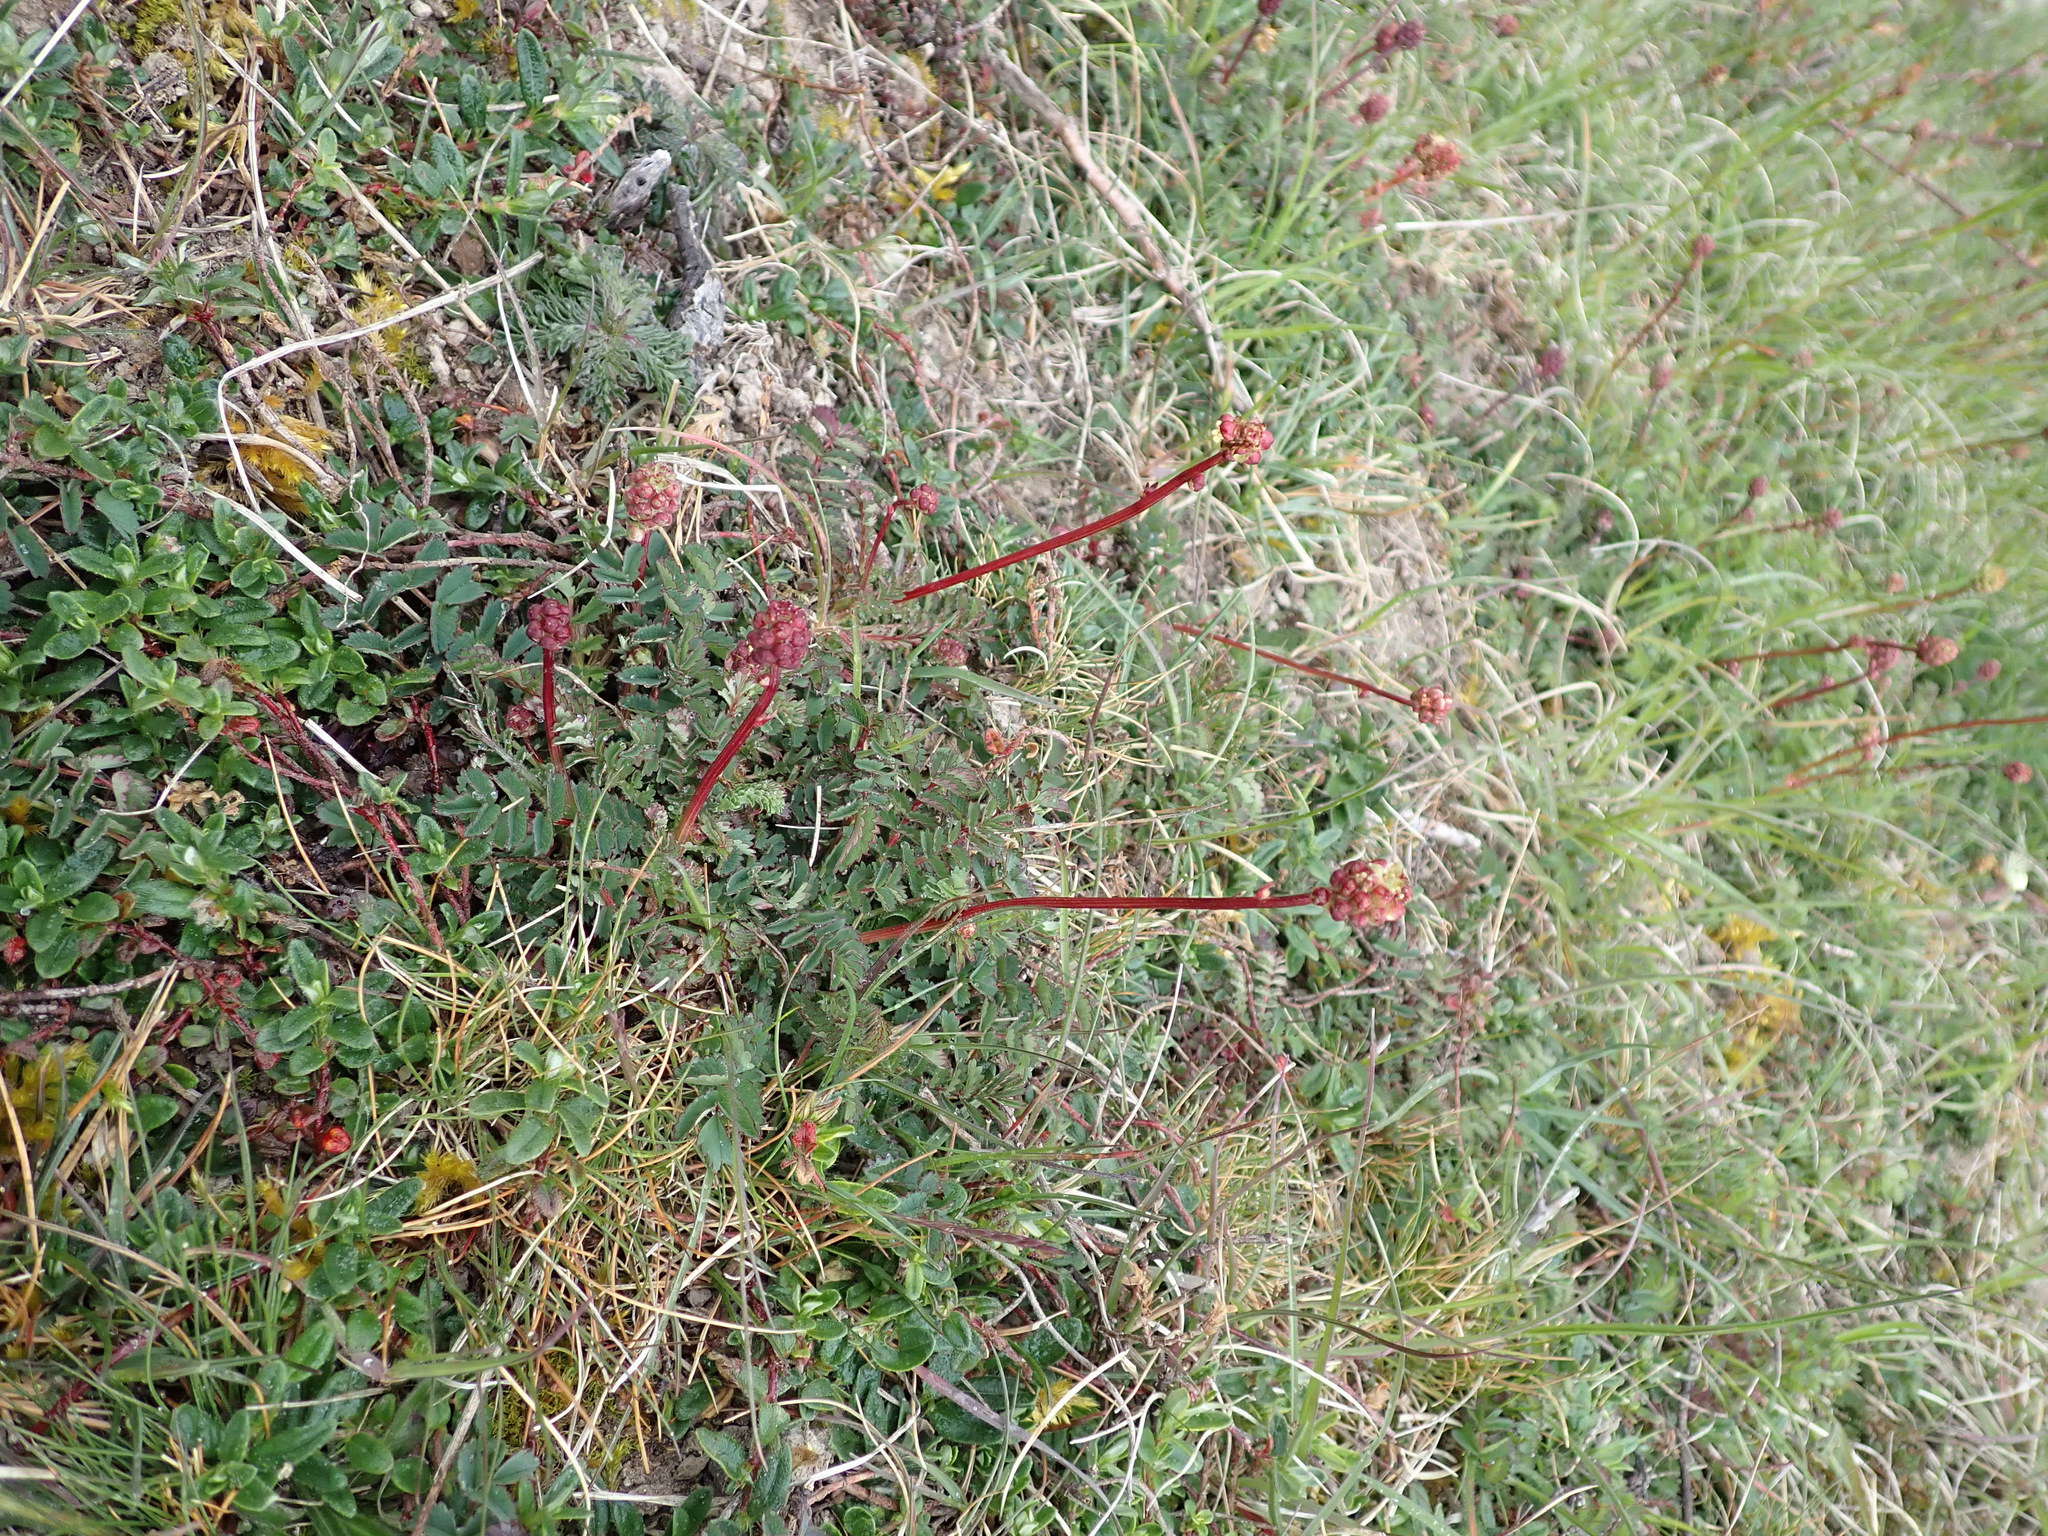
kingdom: Plantae
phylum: Tracheophyta
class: Magnoliopsida
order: Rosales
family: Rosaceae
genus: Poterium
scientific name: Poterium sanguisorba
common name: Salad burnet
